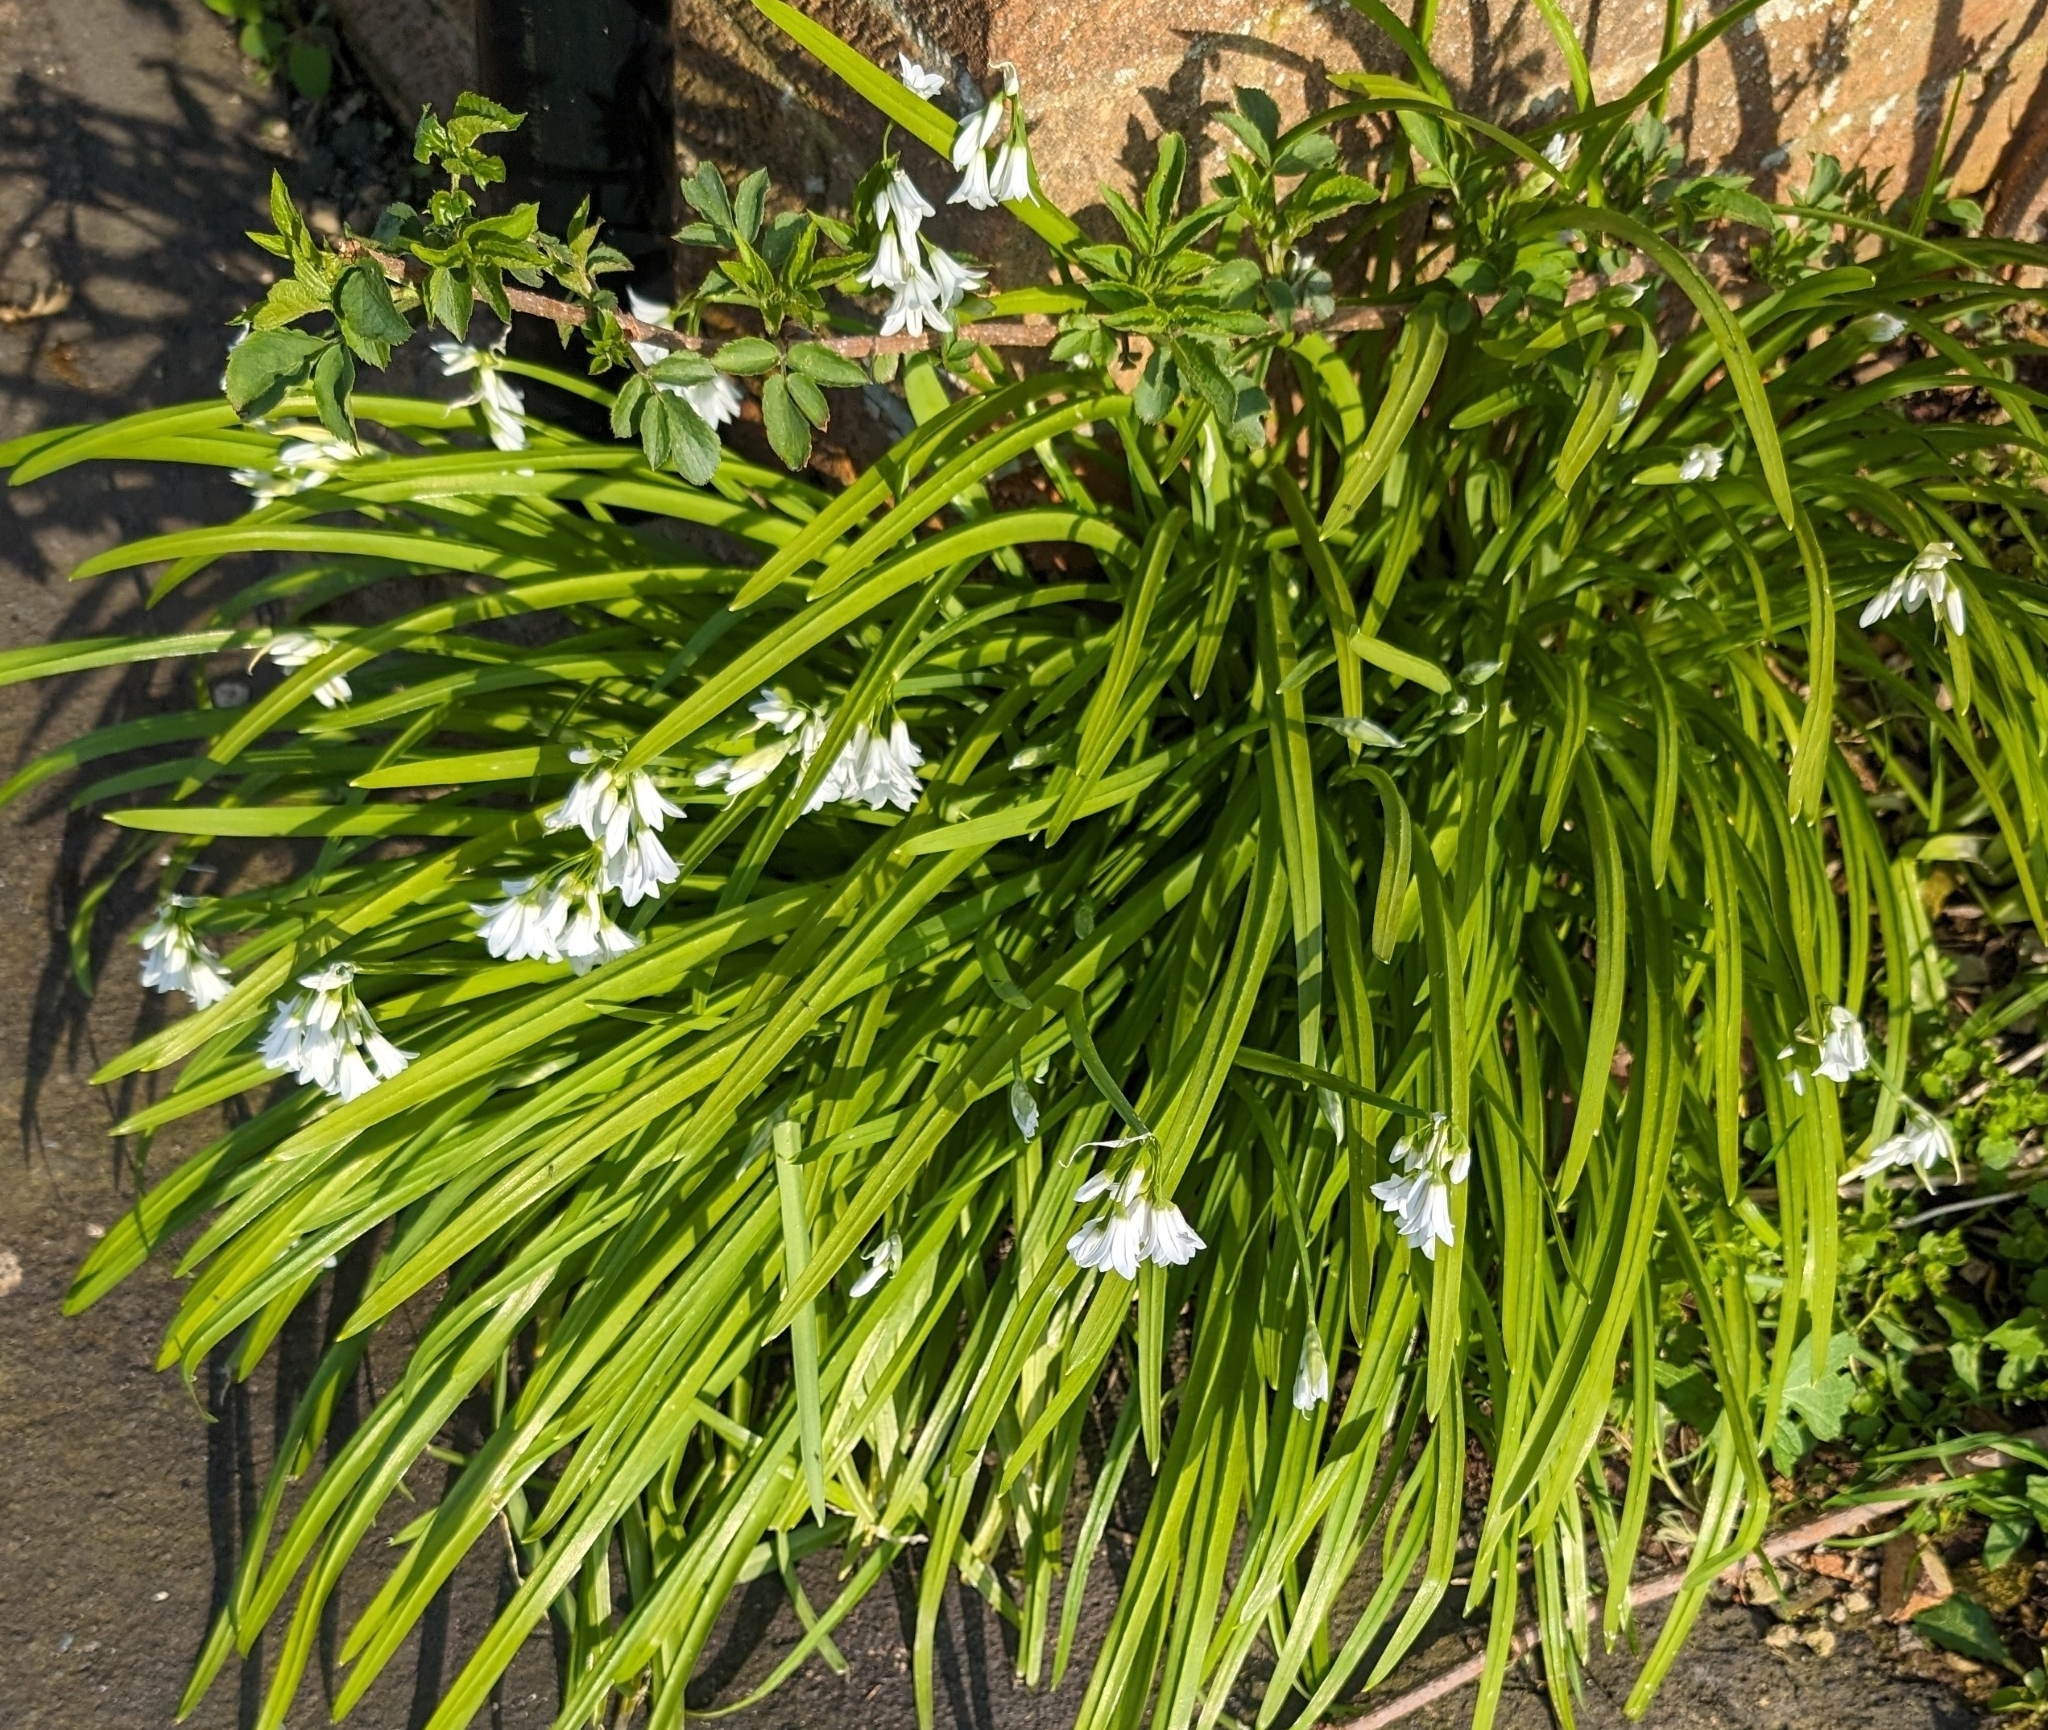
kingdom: Plantae
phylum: Tracheophyta
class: Liliopsida
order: Asparagales
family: Amaryllidaceae
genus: Allium
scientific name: Allium triquetrum
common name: Three-cornered garlic
